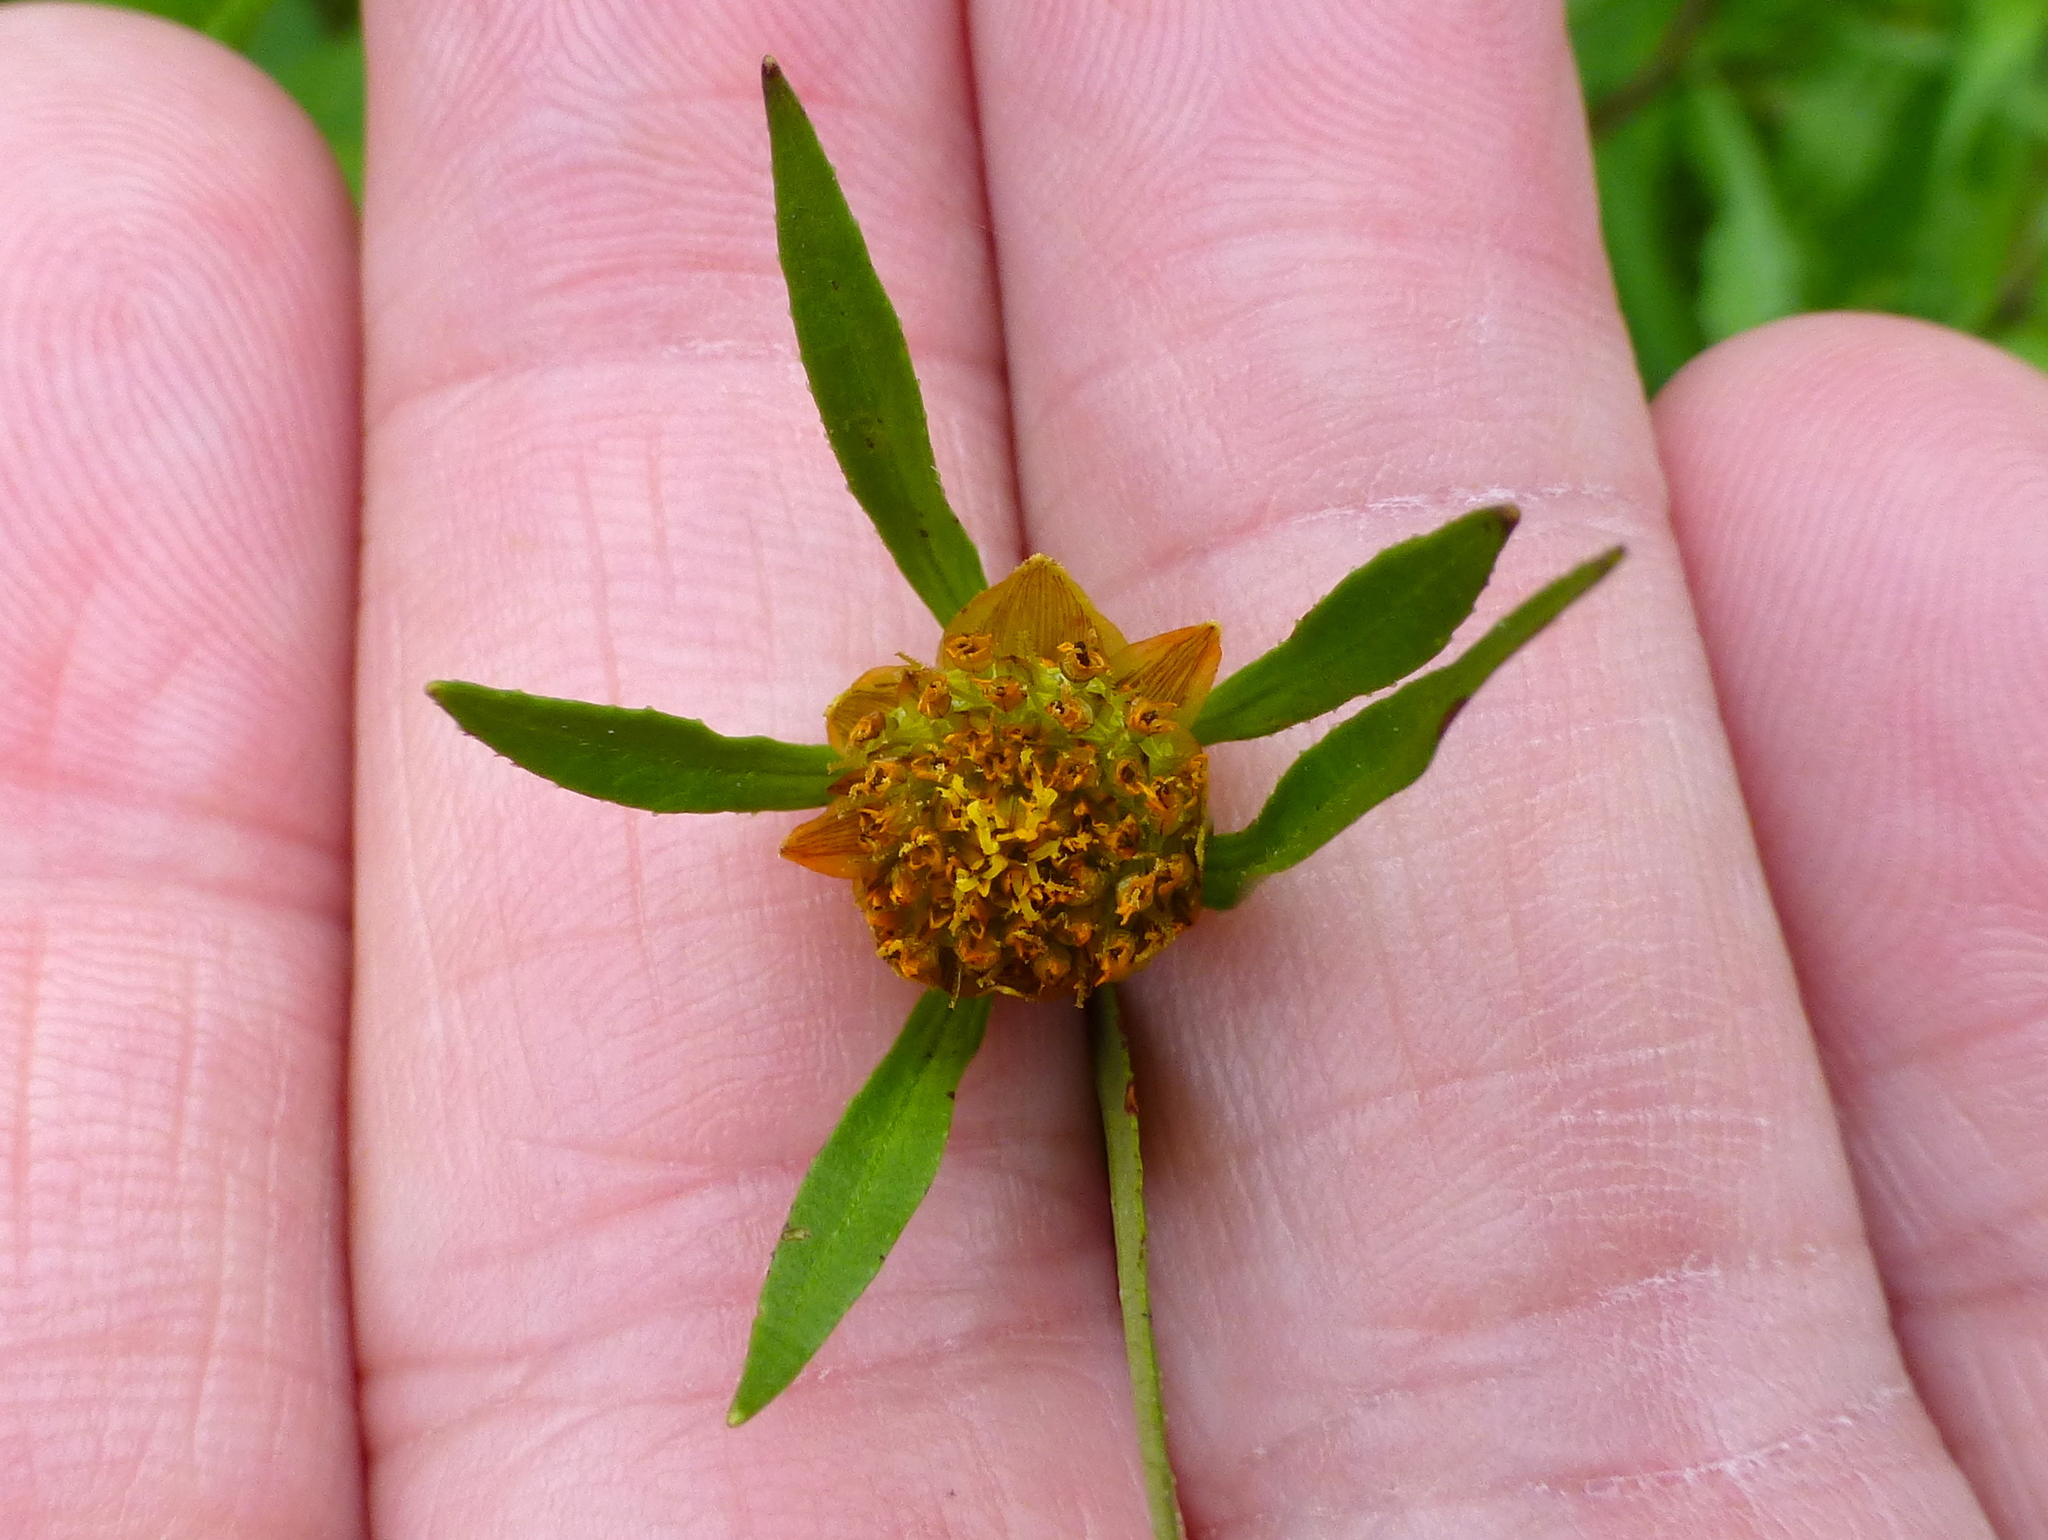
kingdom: Plantae
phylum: Tracheophyta
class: Magnoliopsida
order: Asterales
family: Asteraceae
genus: Bidens
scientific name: Bidens frondosa
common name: Beggarticks
